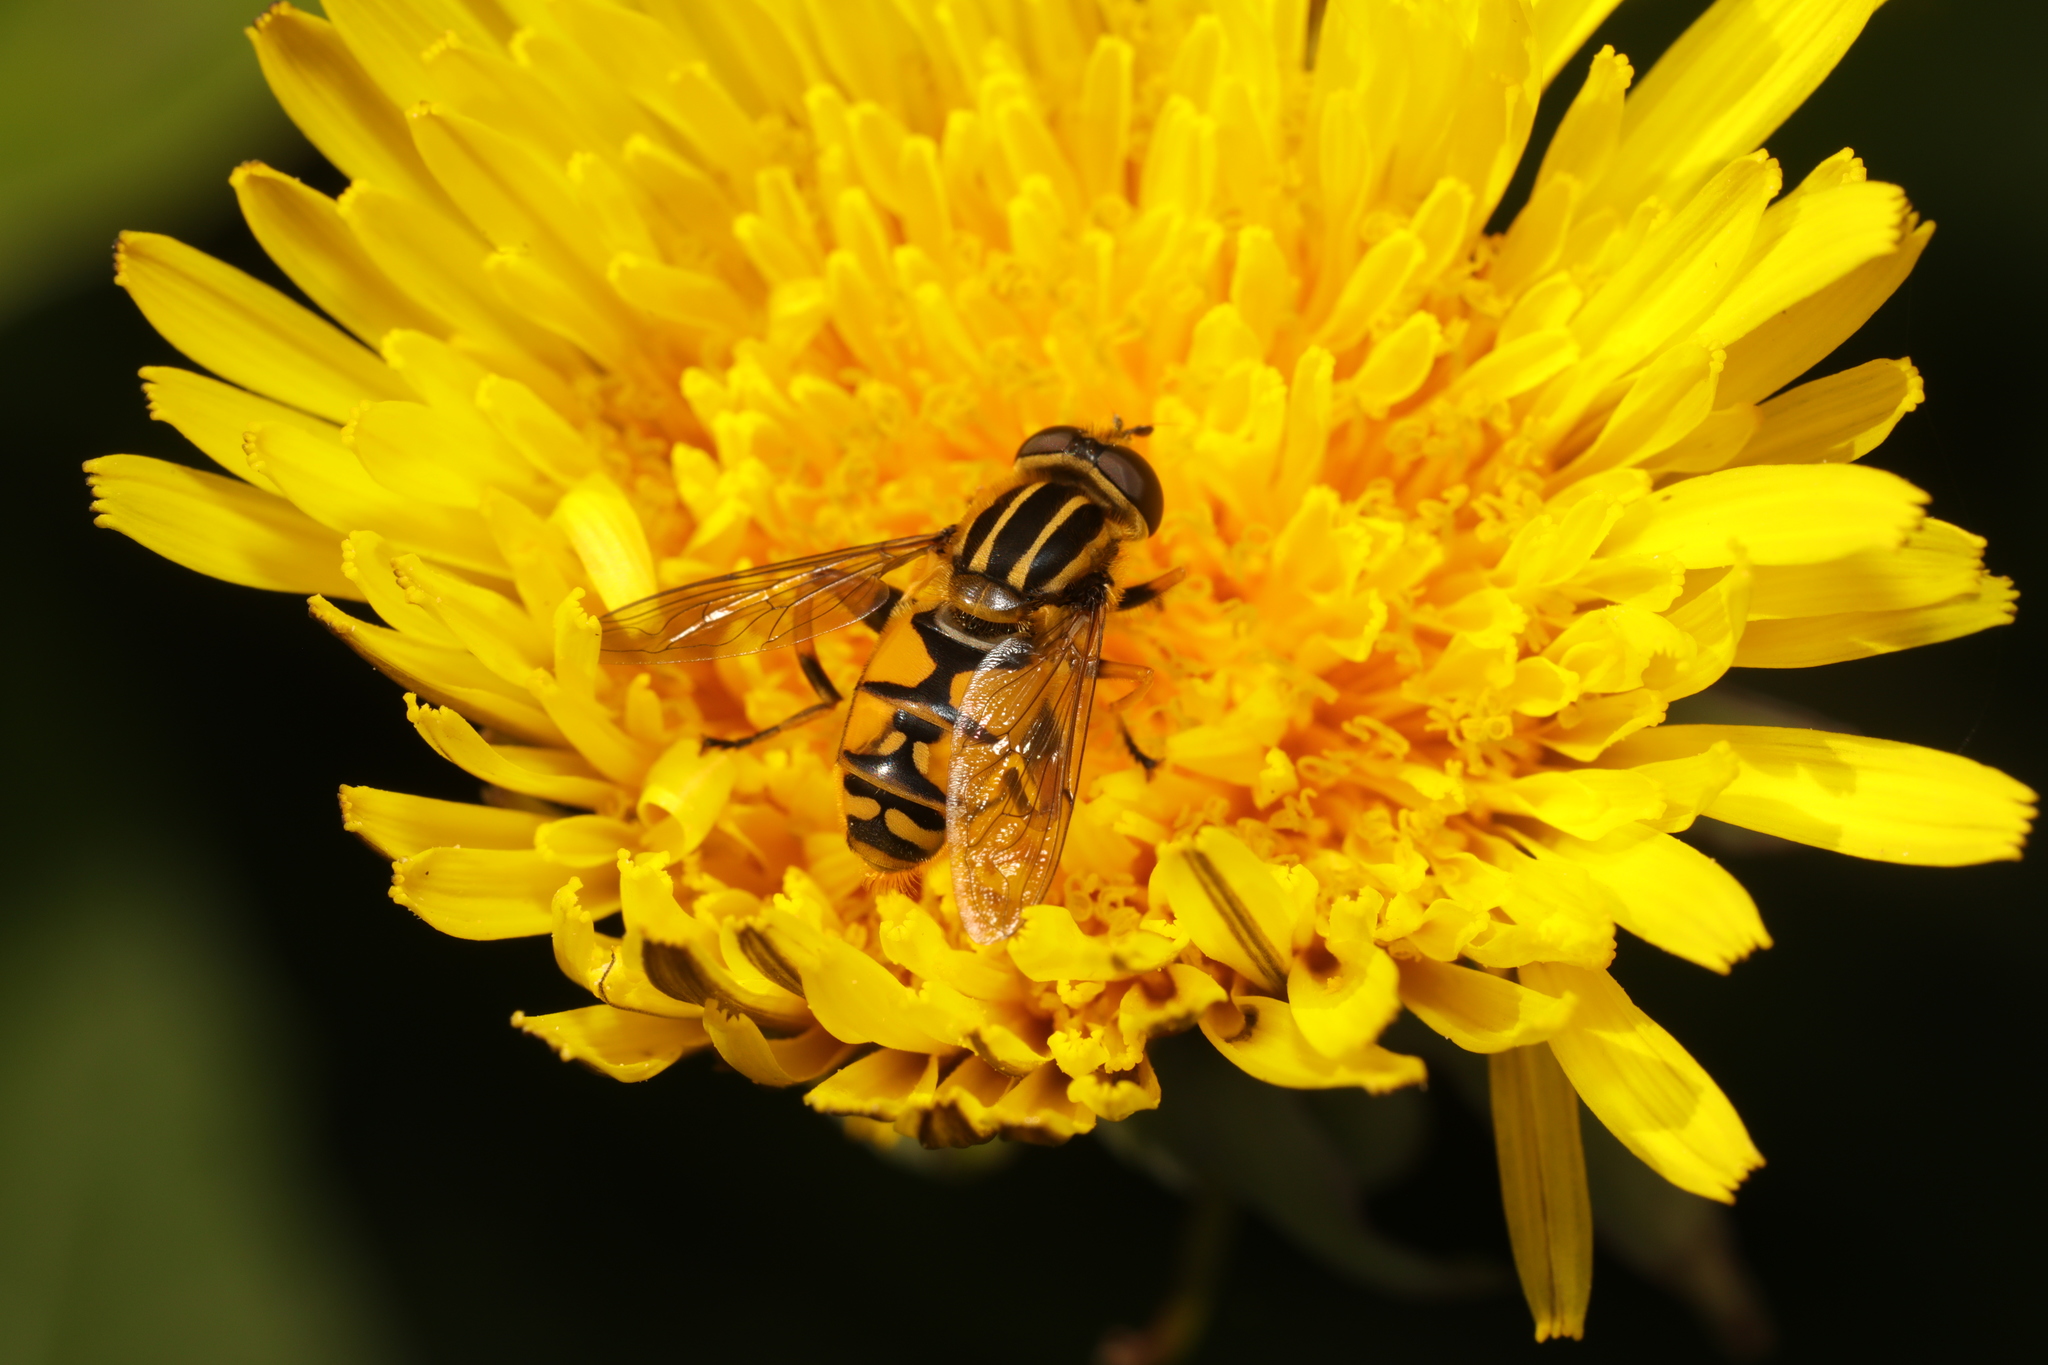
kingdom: Animalia
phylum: Arthropoda
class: Insecta
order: Diptera
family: Syrphidae
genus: Helophilus
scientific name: Helophilus pendulus
